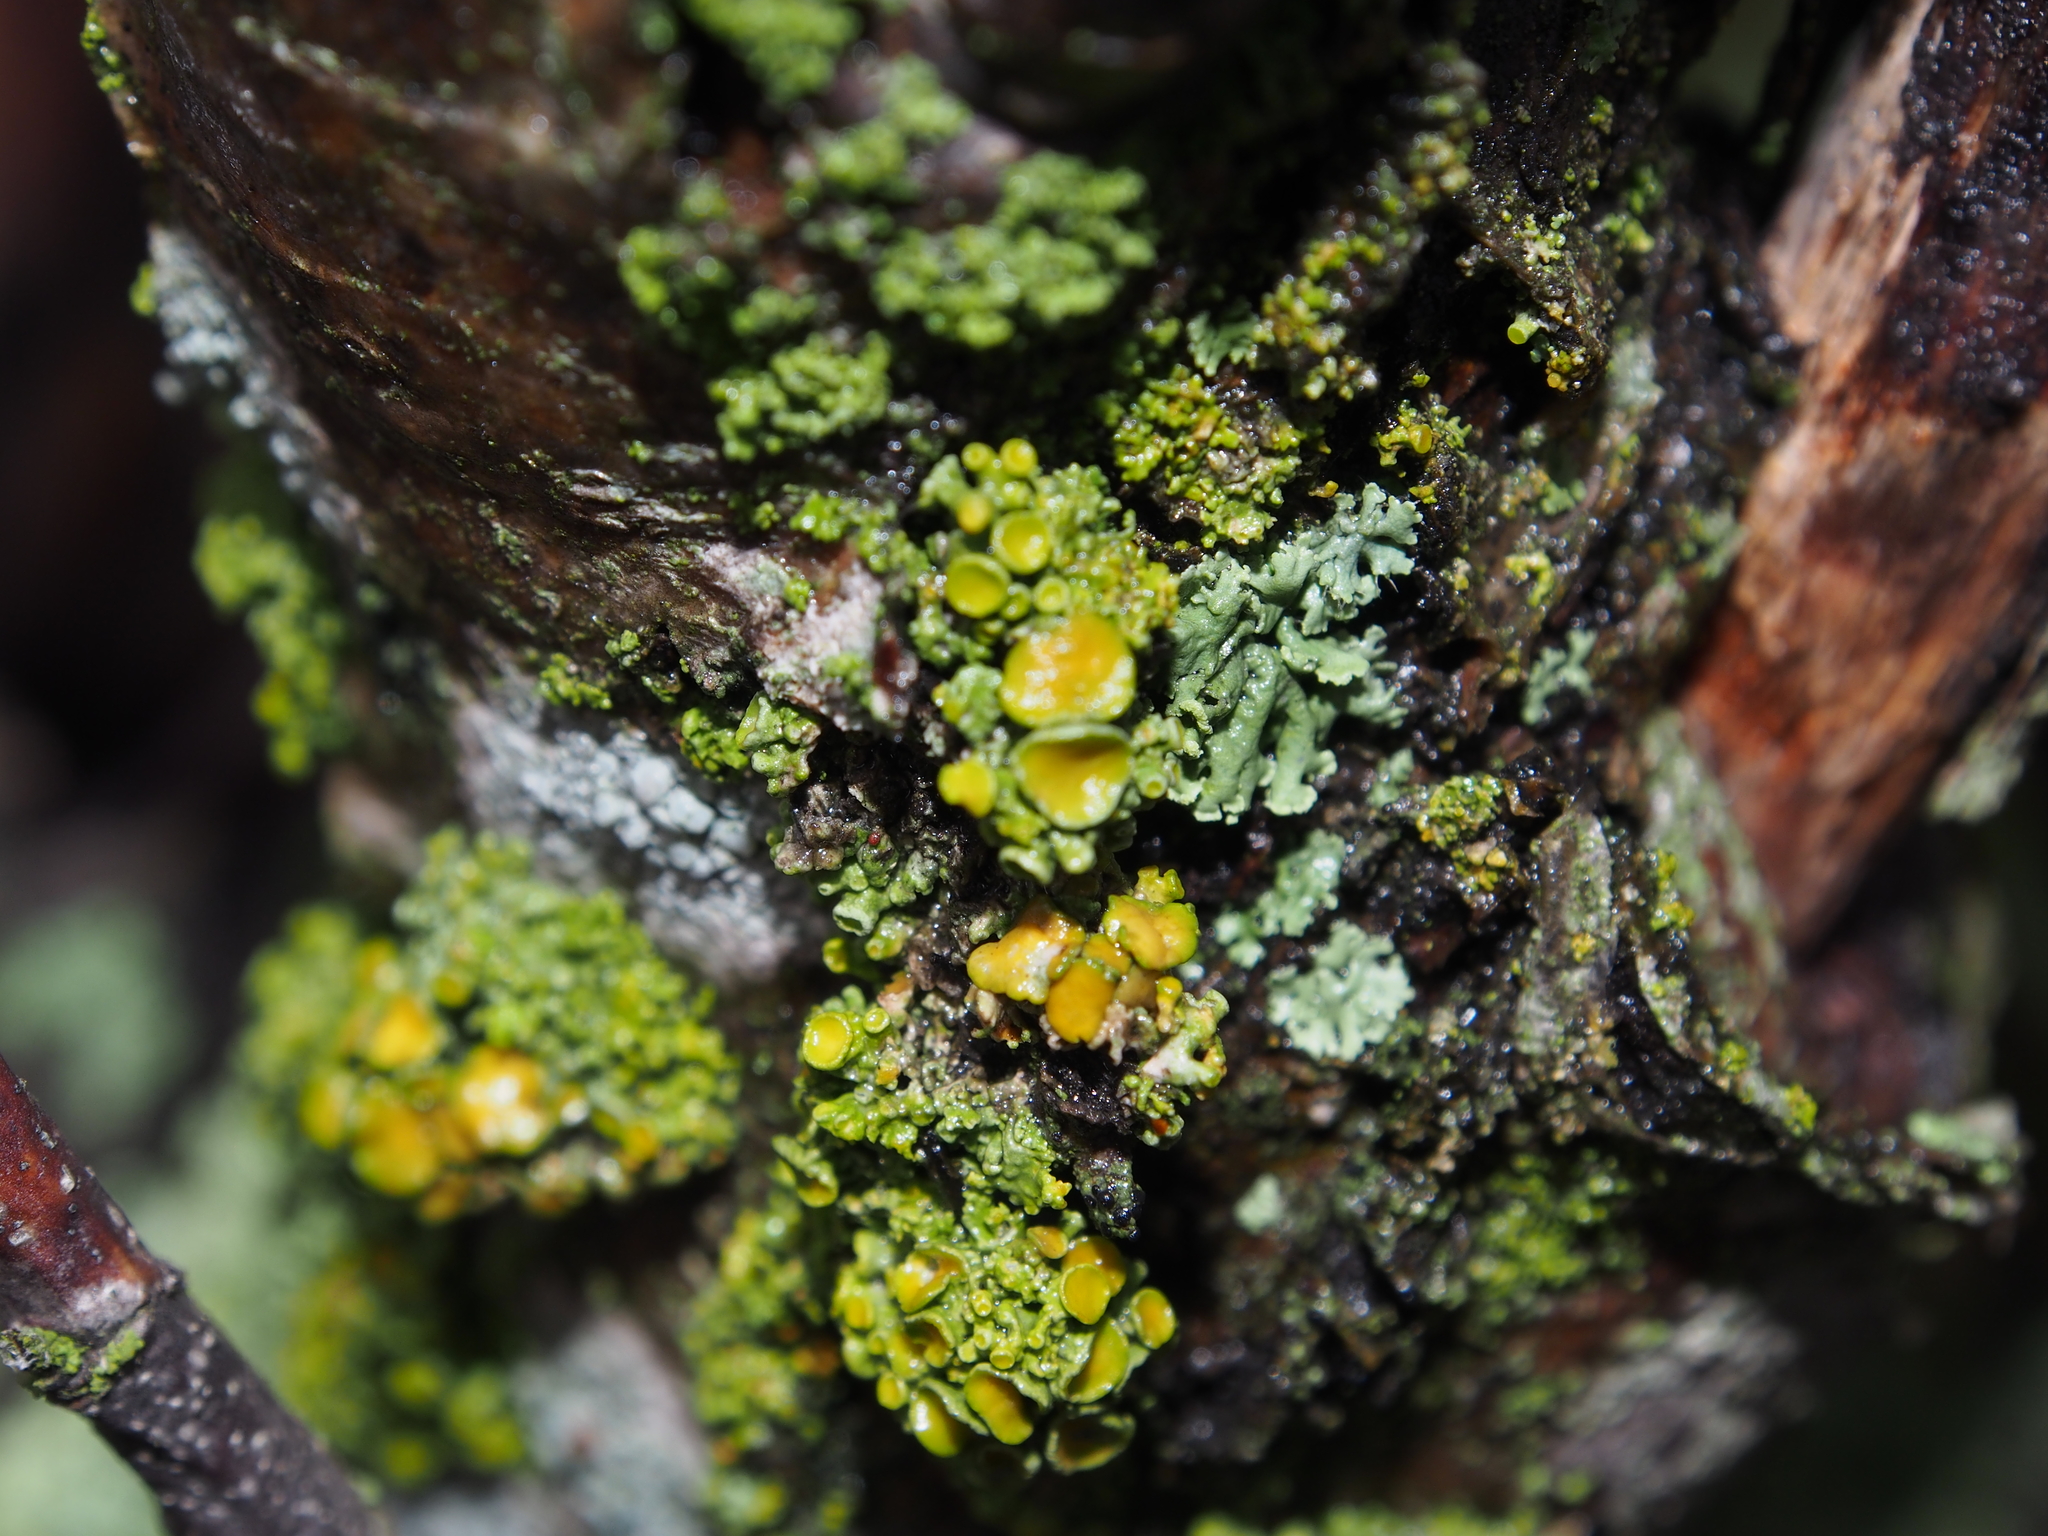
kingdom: Fungi
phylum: Ascomycota
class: Lecanoromycetes
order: Teloschistales
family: Teloschistaceae
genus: Polycauliona
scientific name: Polycauliona polycarpa
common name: Pin-cushion sunburst lichen
